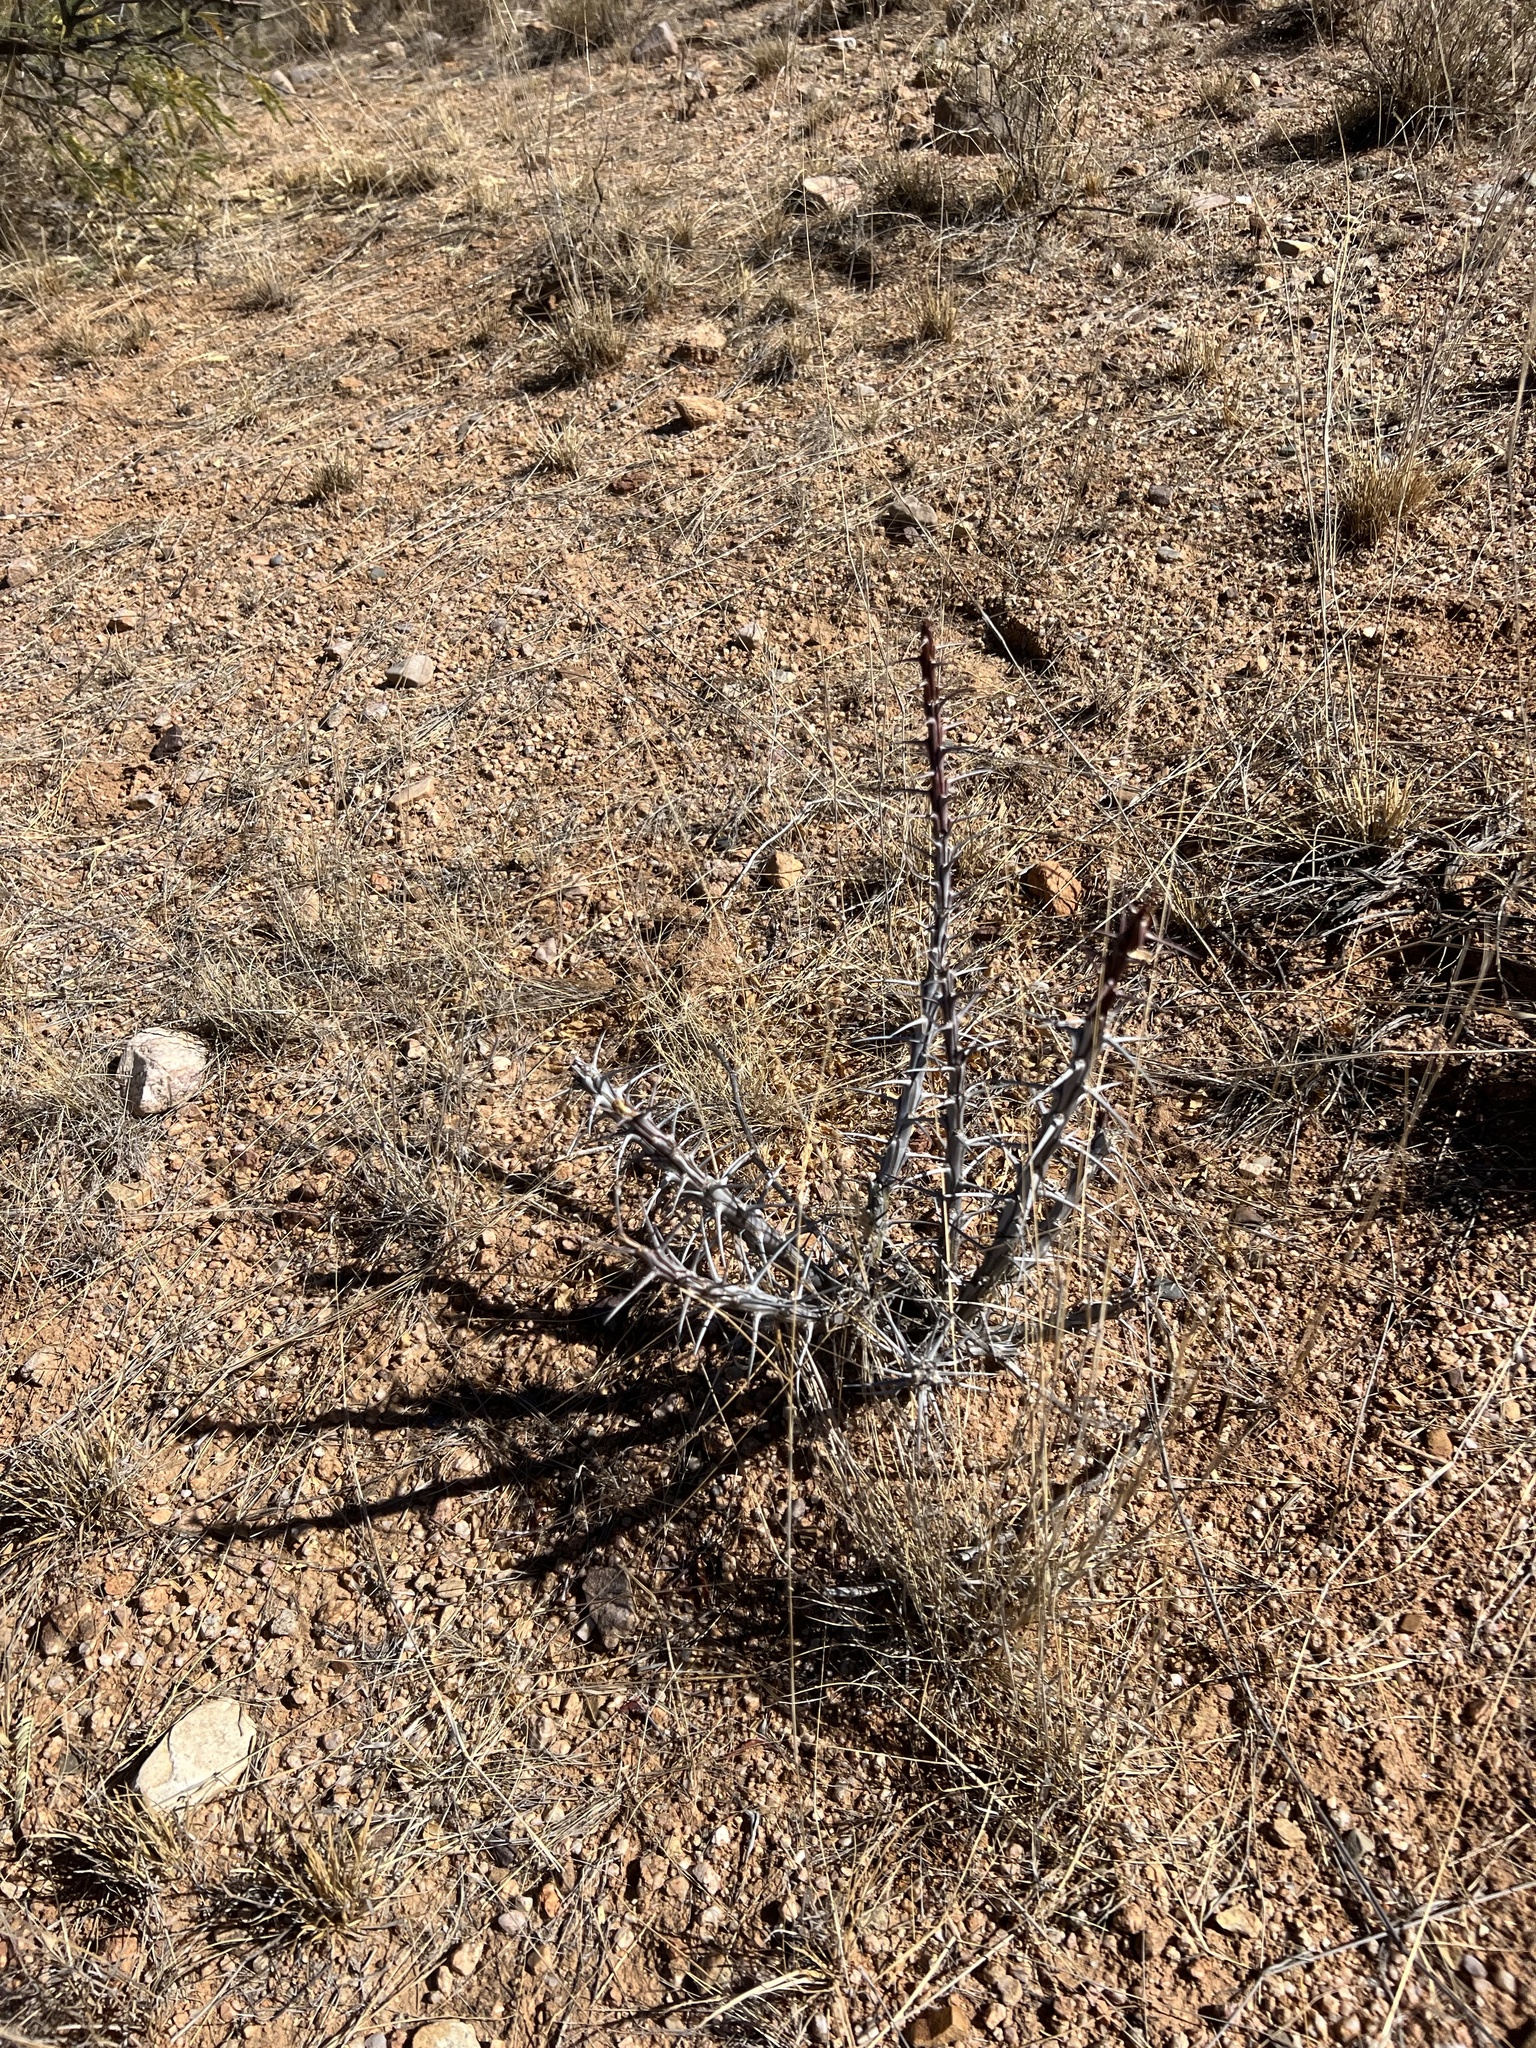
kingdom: Plantae
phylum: Tracheophyta
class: Magnoliopsida
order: Ericales
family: Fouquieriaceae
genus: Fouquieria
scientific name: Fouquieria splendens
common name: Vine-cactus
